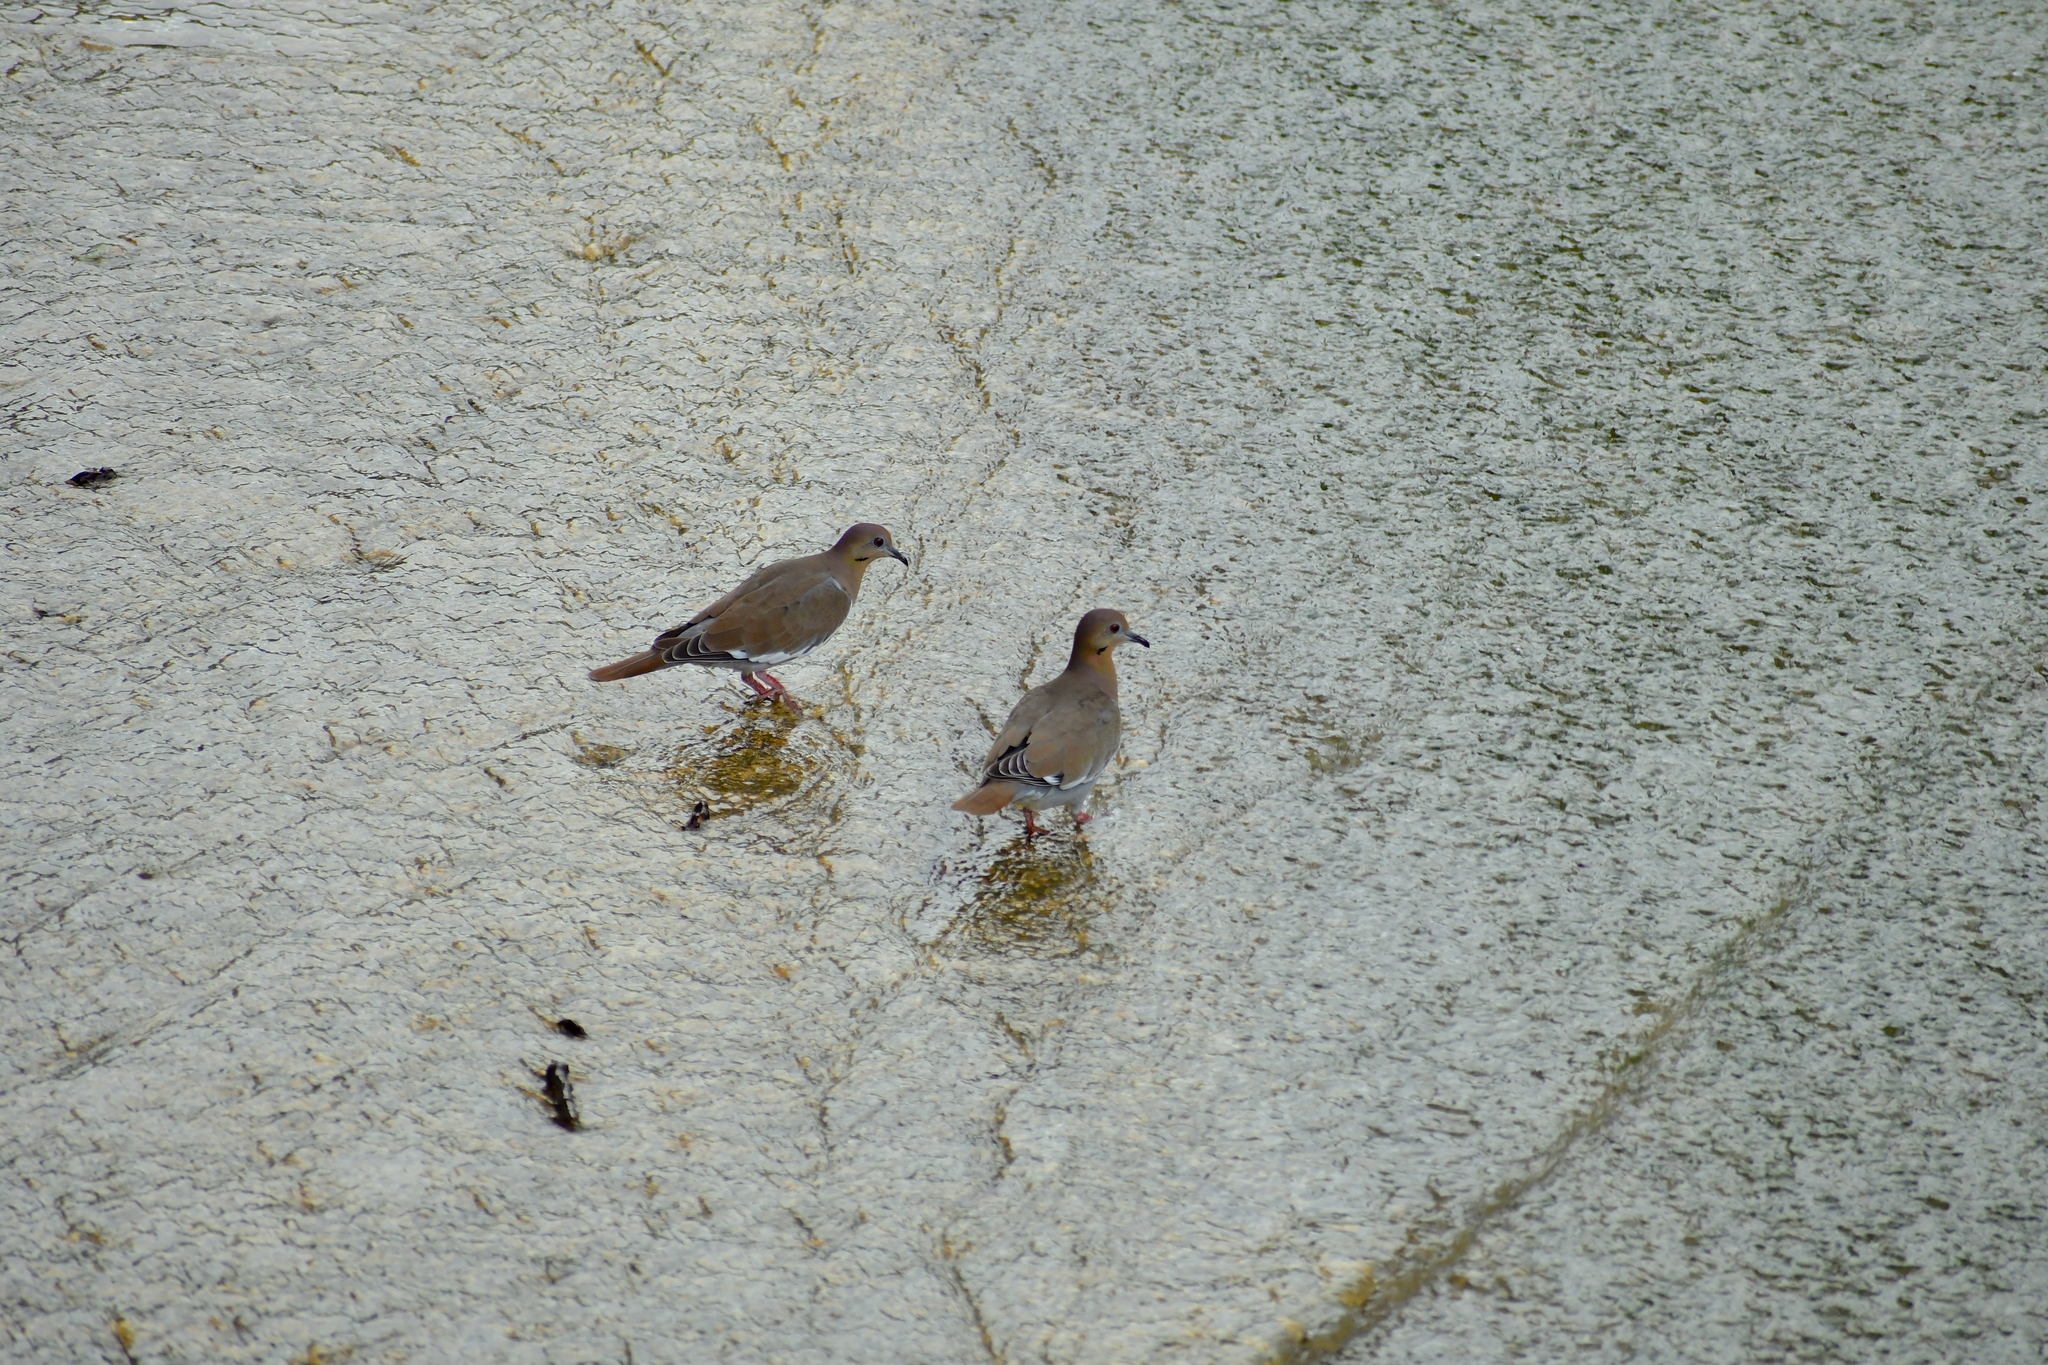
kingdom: Animalia
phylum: Chordata
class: Aves
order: Columbiformes
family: Columbidae
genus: Zenaida
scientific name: Zenaida asiatica
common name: White-winged dove
